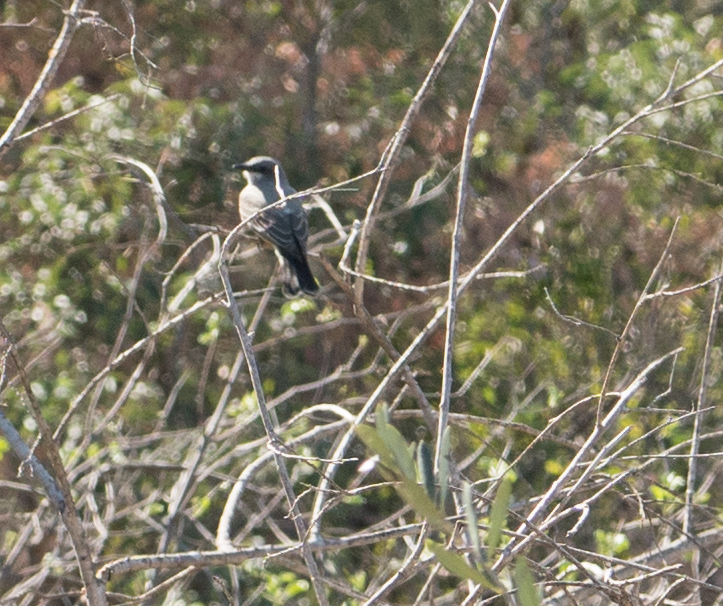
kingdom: Animalia
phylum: Chordata
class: Aves
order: Passeriformes
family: Tyrannidae
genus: Tyrannus
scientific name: Tyrannus vociferans
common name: Cassin's kingbird
